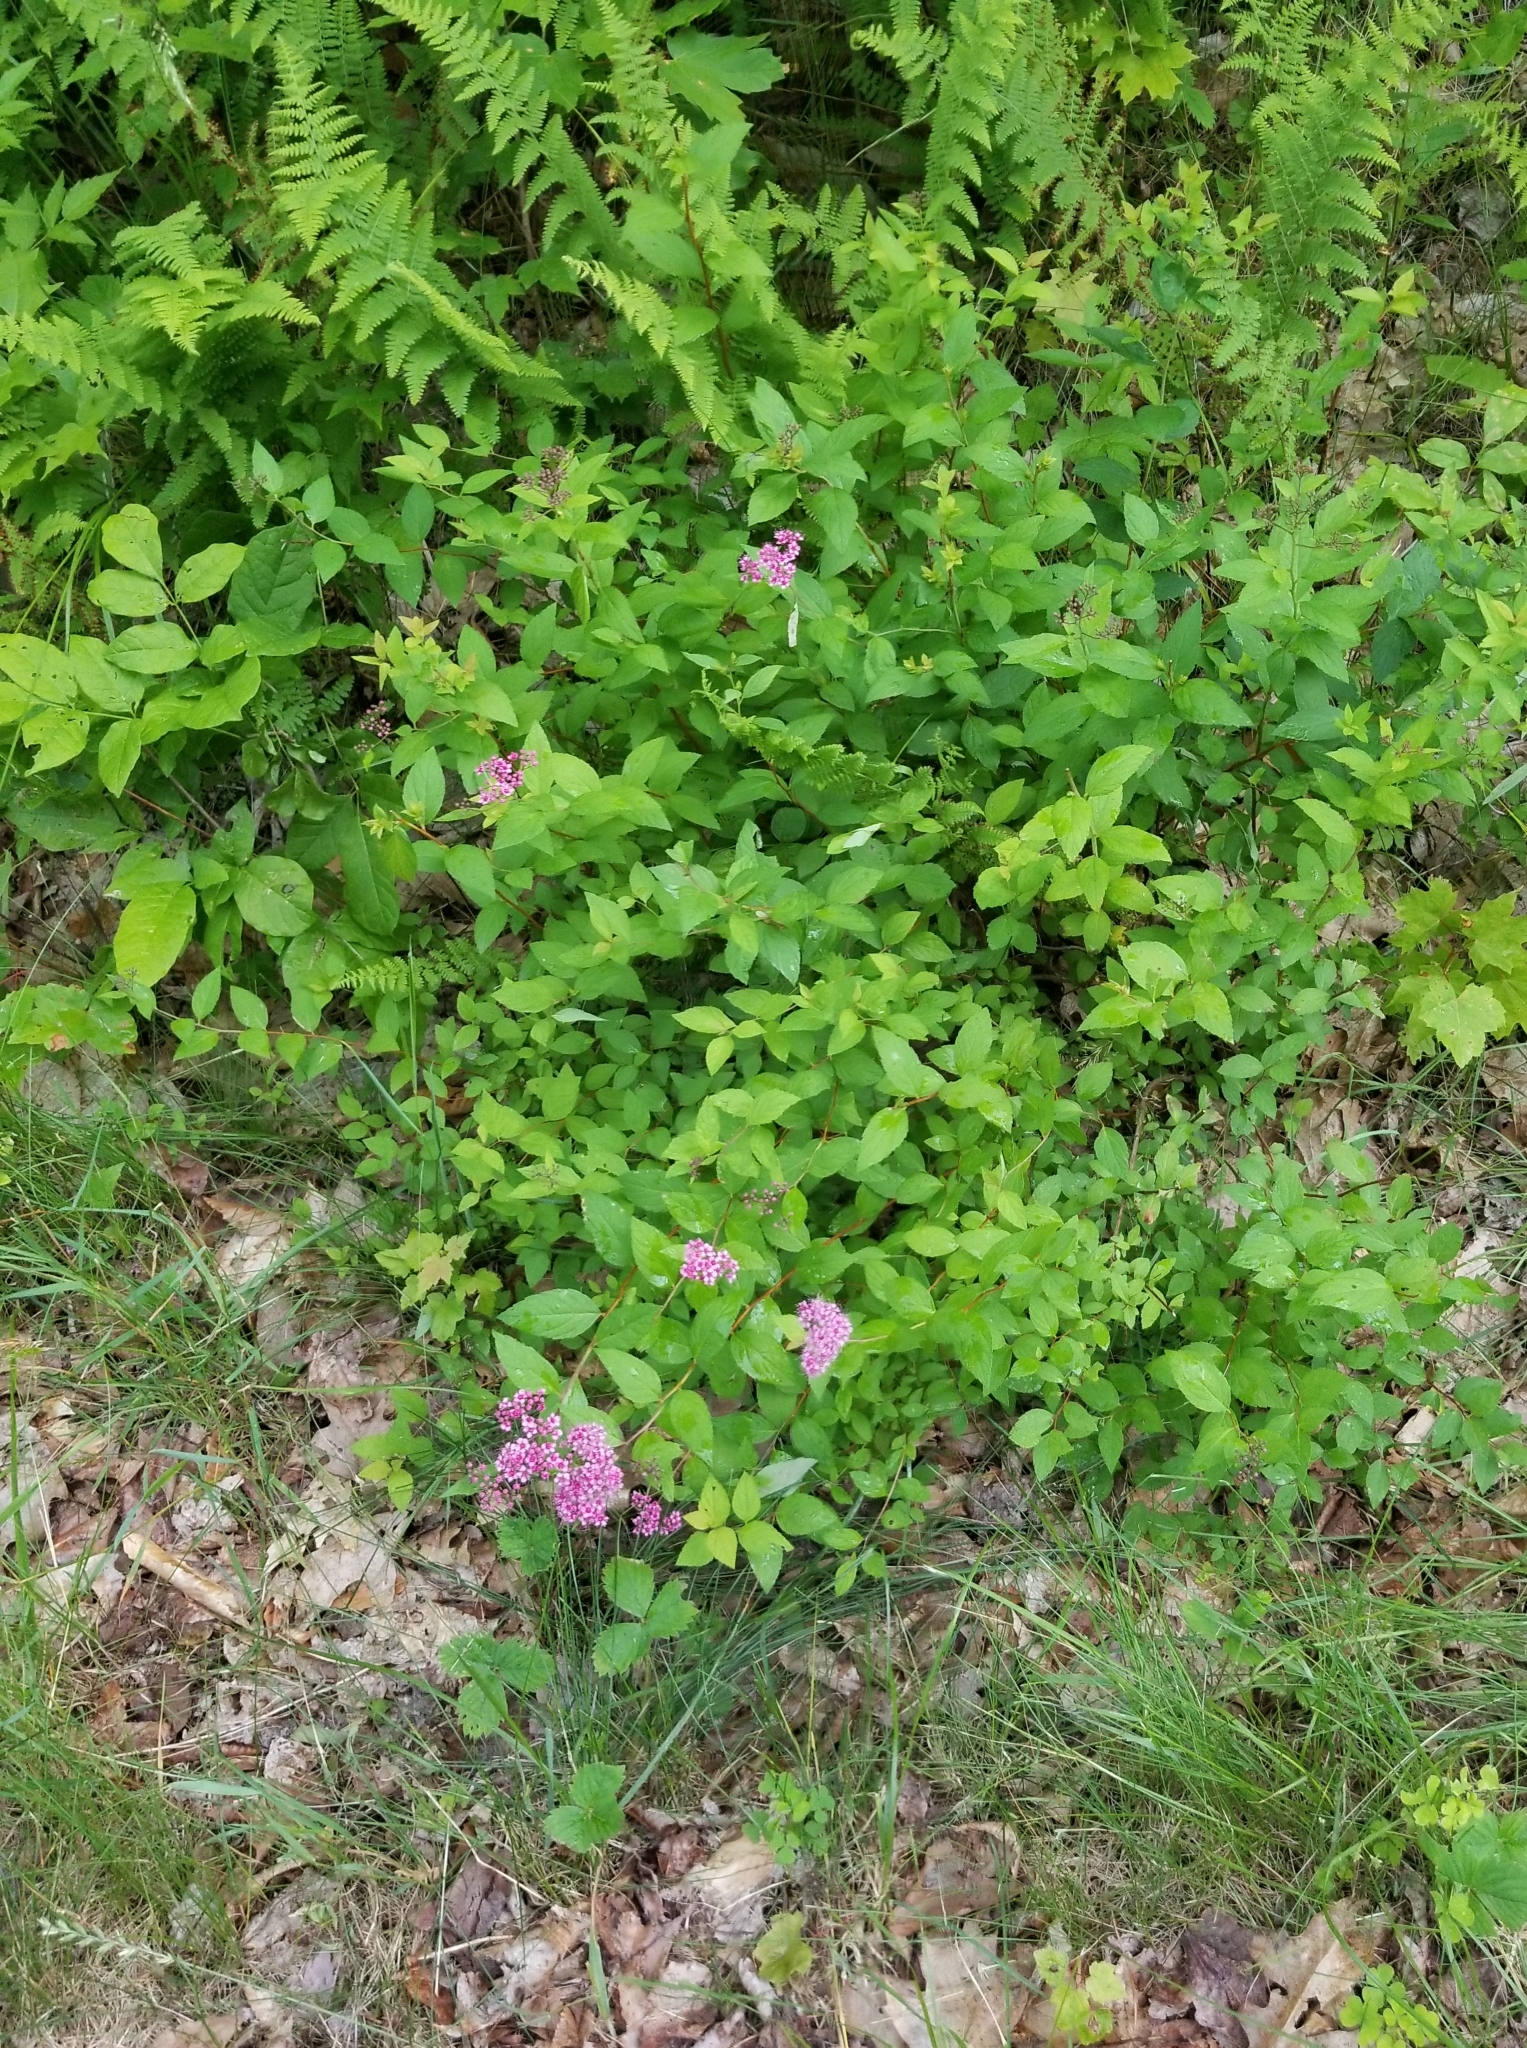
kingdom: Plantae
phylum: Tracheophyta
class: Magnoliopsida
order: Rosales
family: Rosaceae
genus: Spiraea
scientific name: Spiraea japonica
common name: Japanese spiraea
